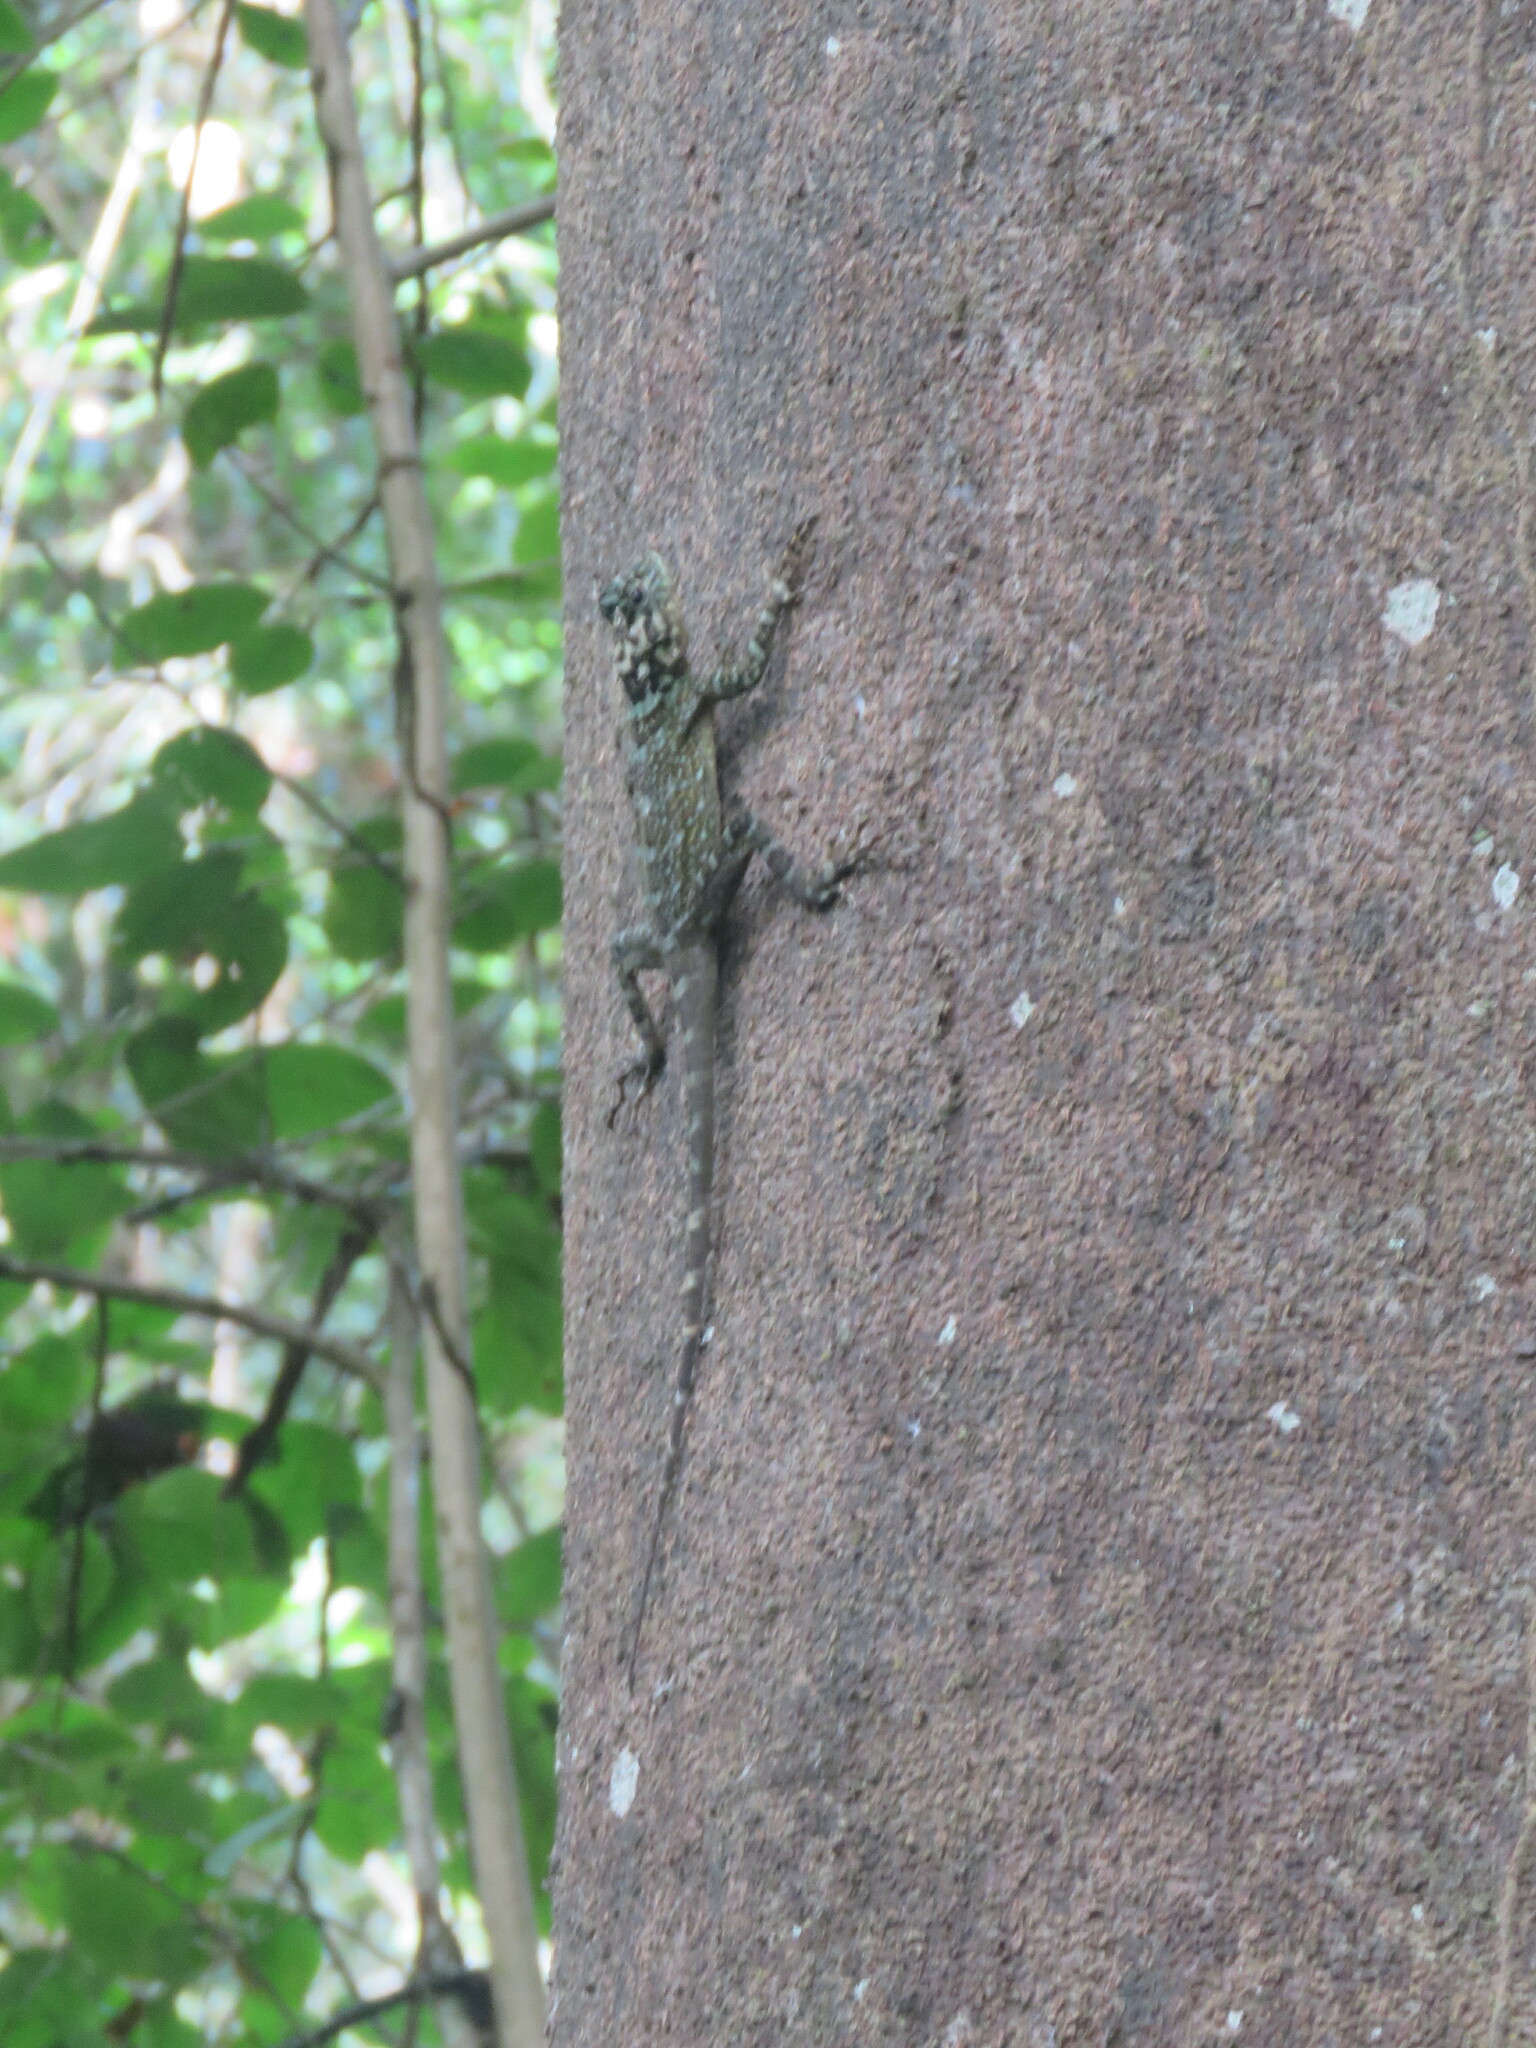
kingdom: Animalia
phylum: Chordata
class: Squamata
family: Tropiduridae
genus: Plica
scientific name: Plica plica
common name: Tree runner
